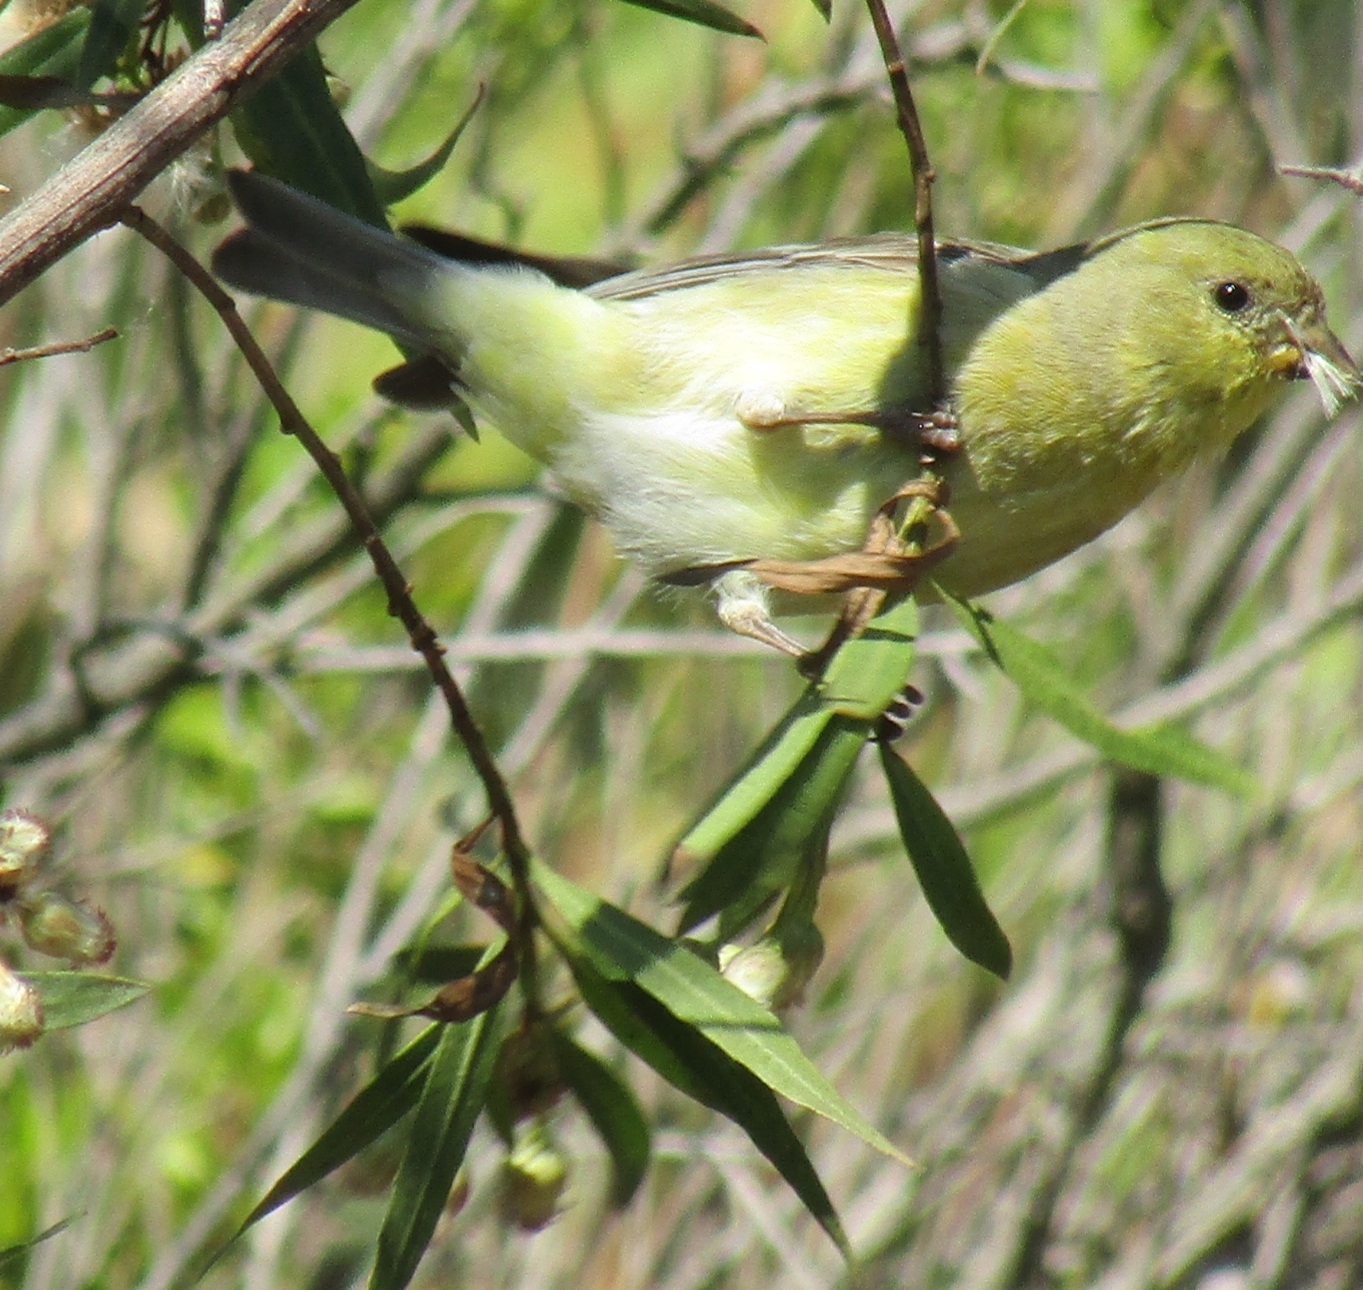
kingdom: Animalia
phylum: Chordata
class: Aves
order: Passeriformes
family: Fringillidae
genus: Spinus
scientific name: Spinus psaltria
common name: Lesser goldfinch
